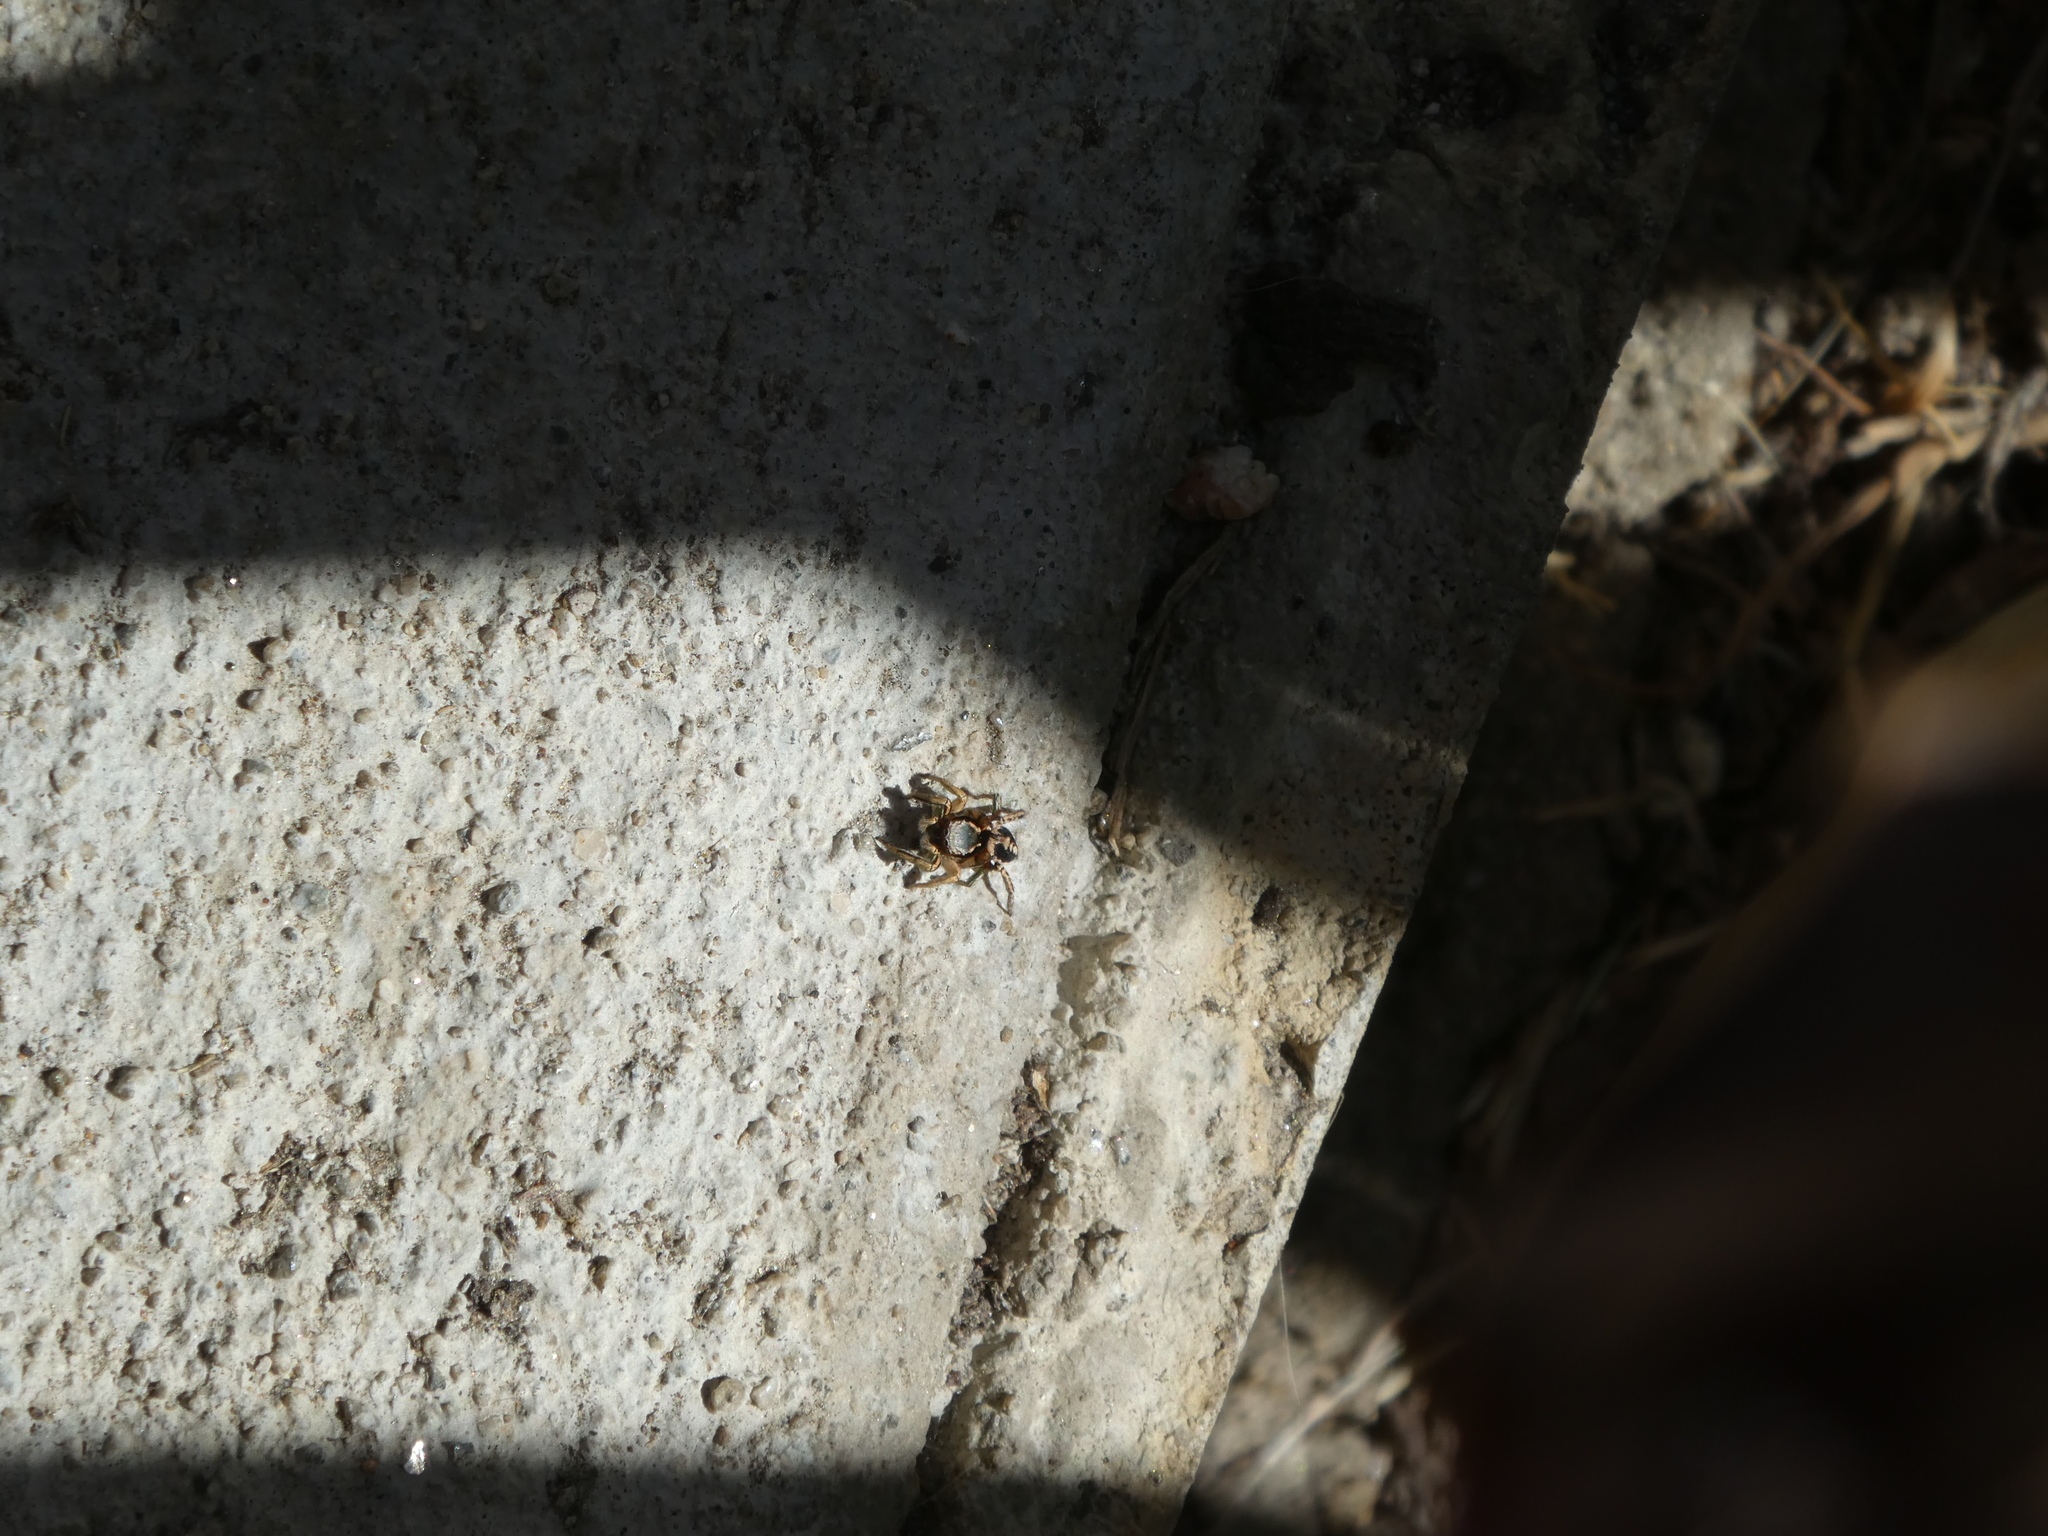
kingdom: Animalia
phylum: Arthropoda
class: Arachnida
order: Araneae
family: Salticidae
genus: Habronattus
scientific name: Habronattus pyrrithrix
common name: Jumping spider
